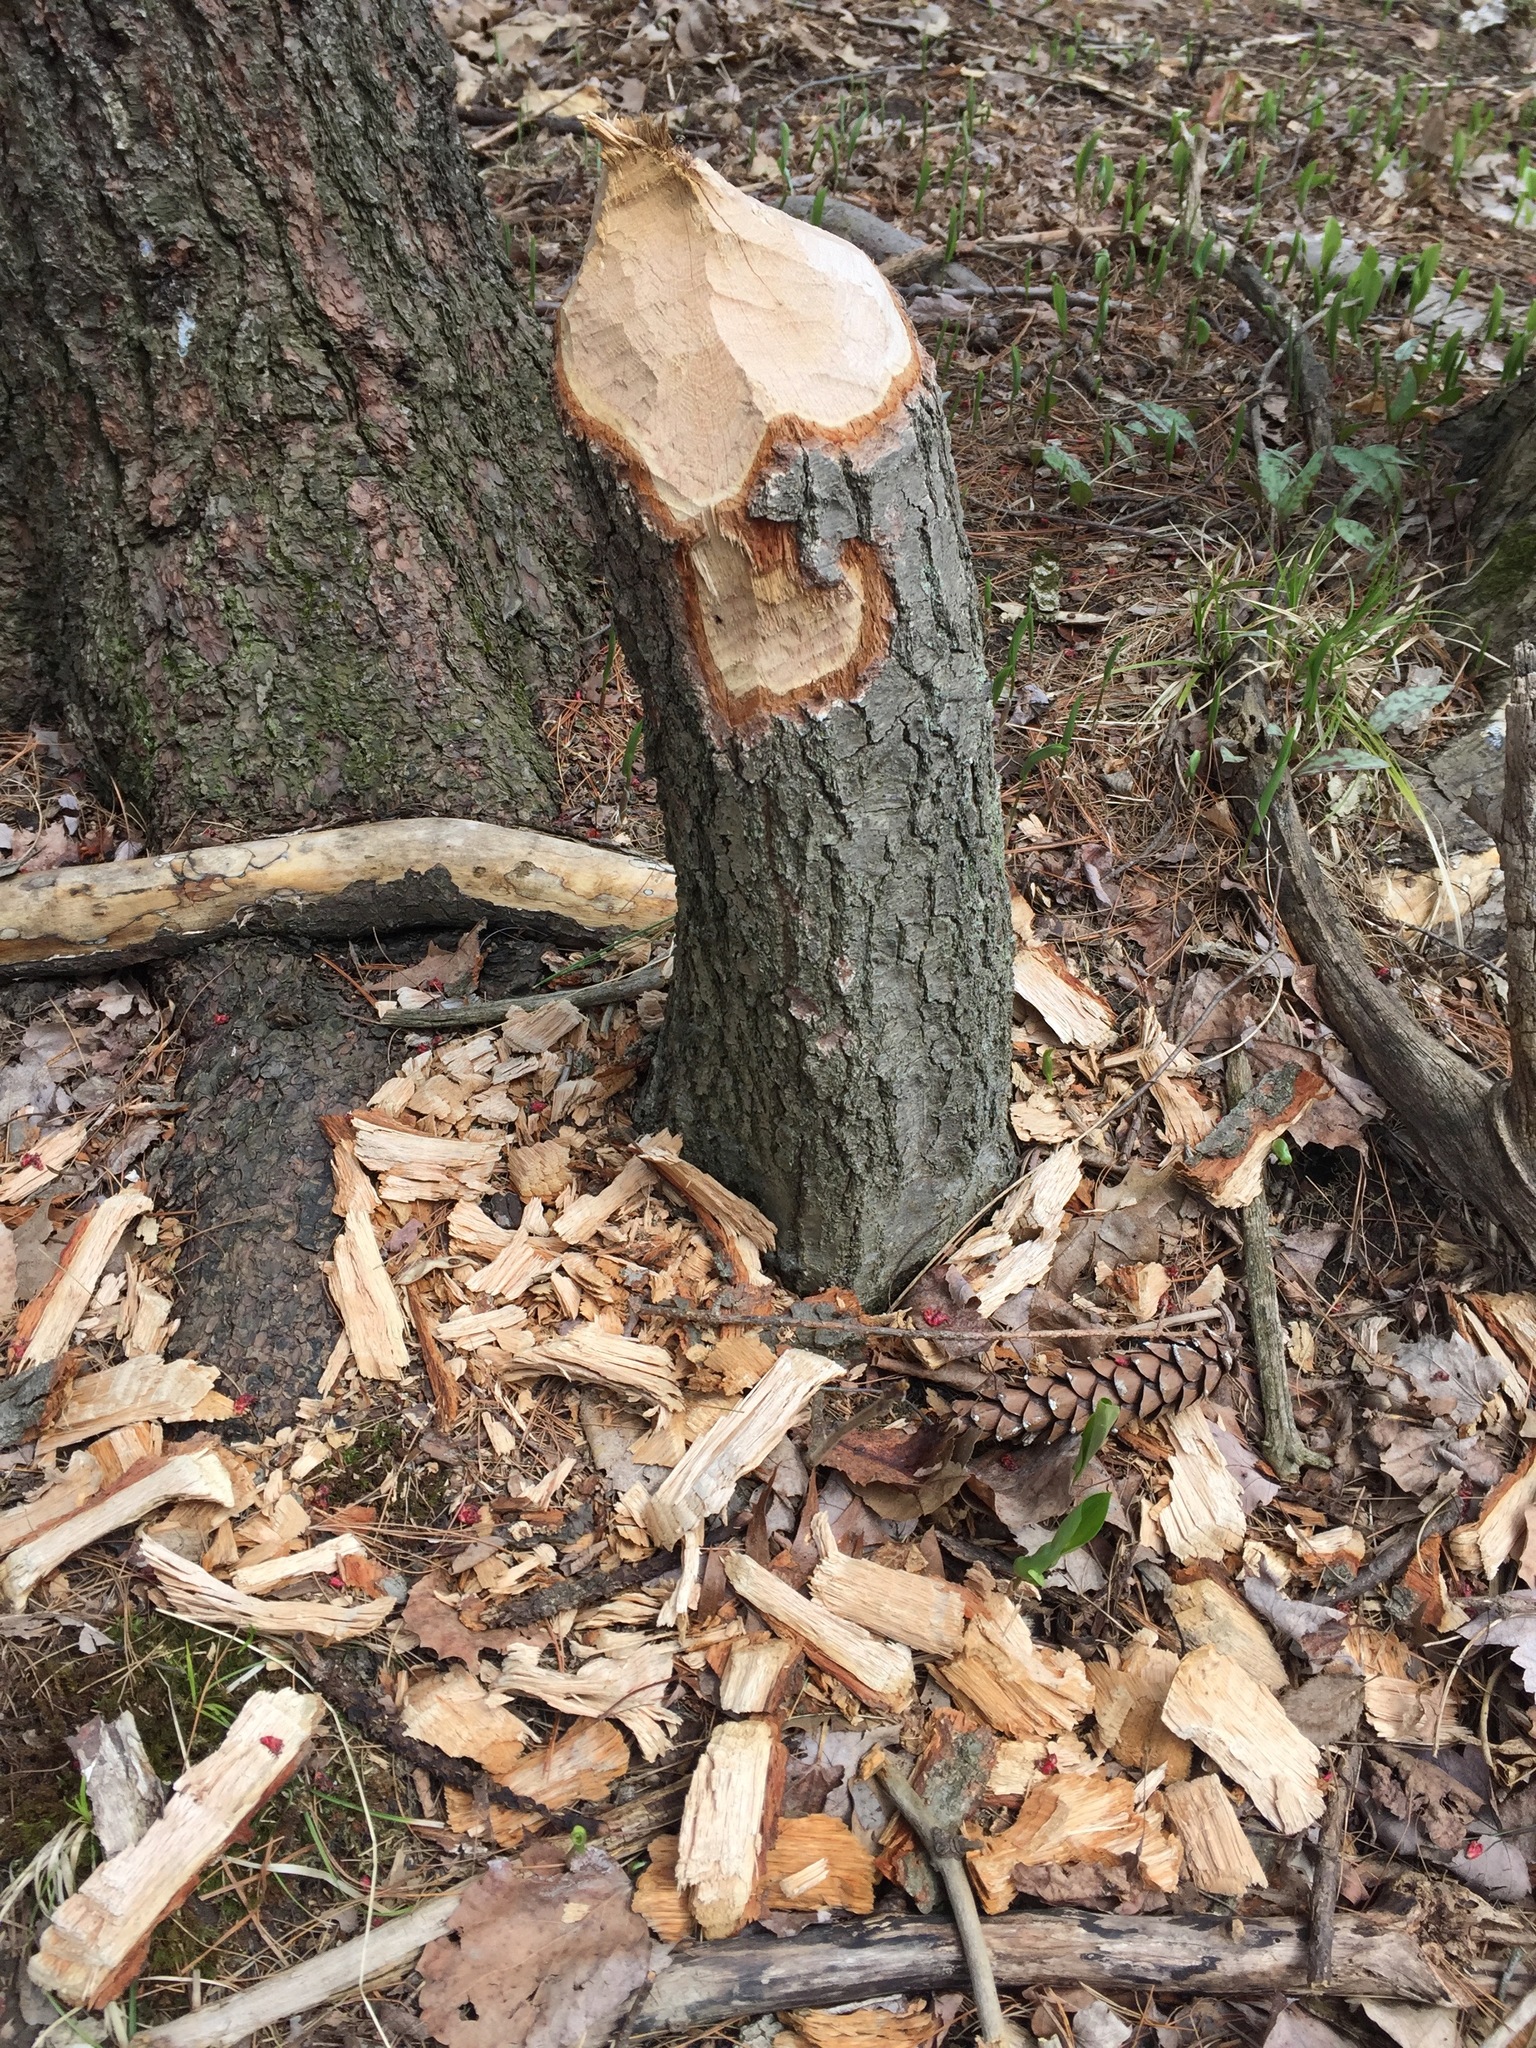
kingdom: Animalia
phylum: Chordata
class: Mammalia
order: Rodentia
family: Castoridae
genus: Castor
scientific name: Castor canadensis
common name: American beaver
